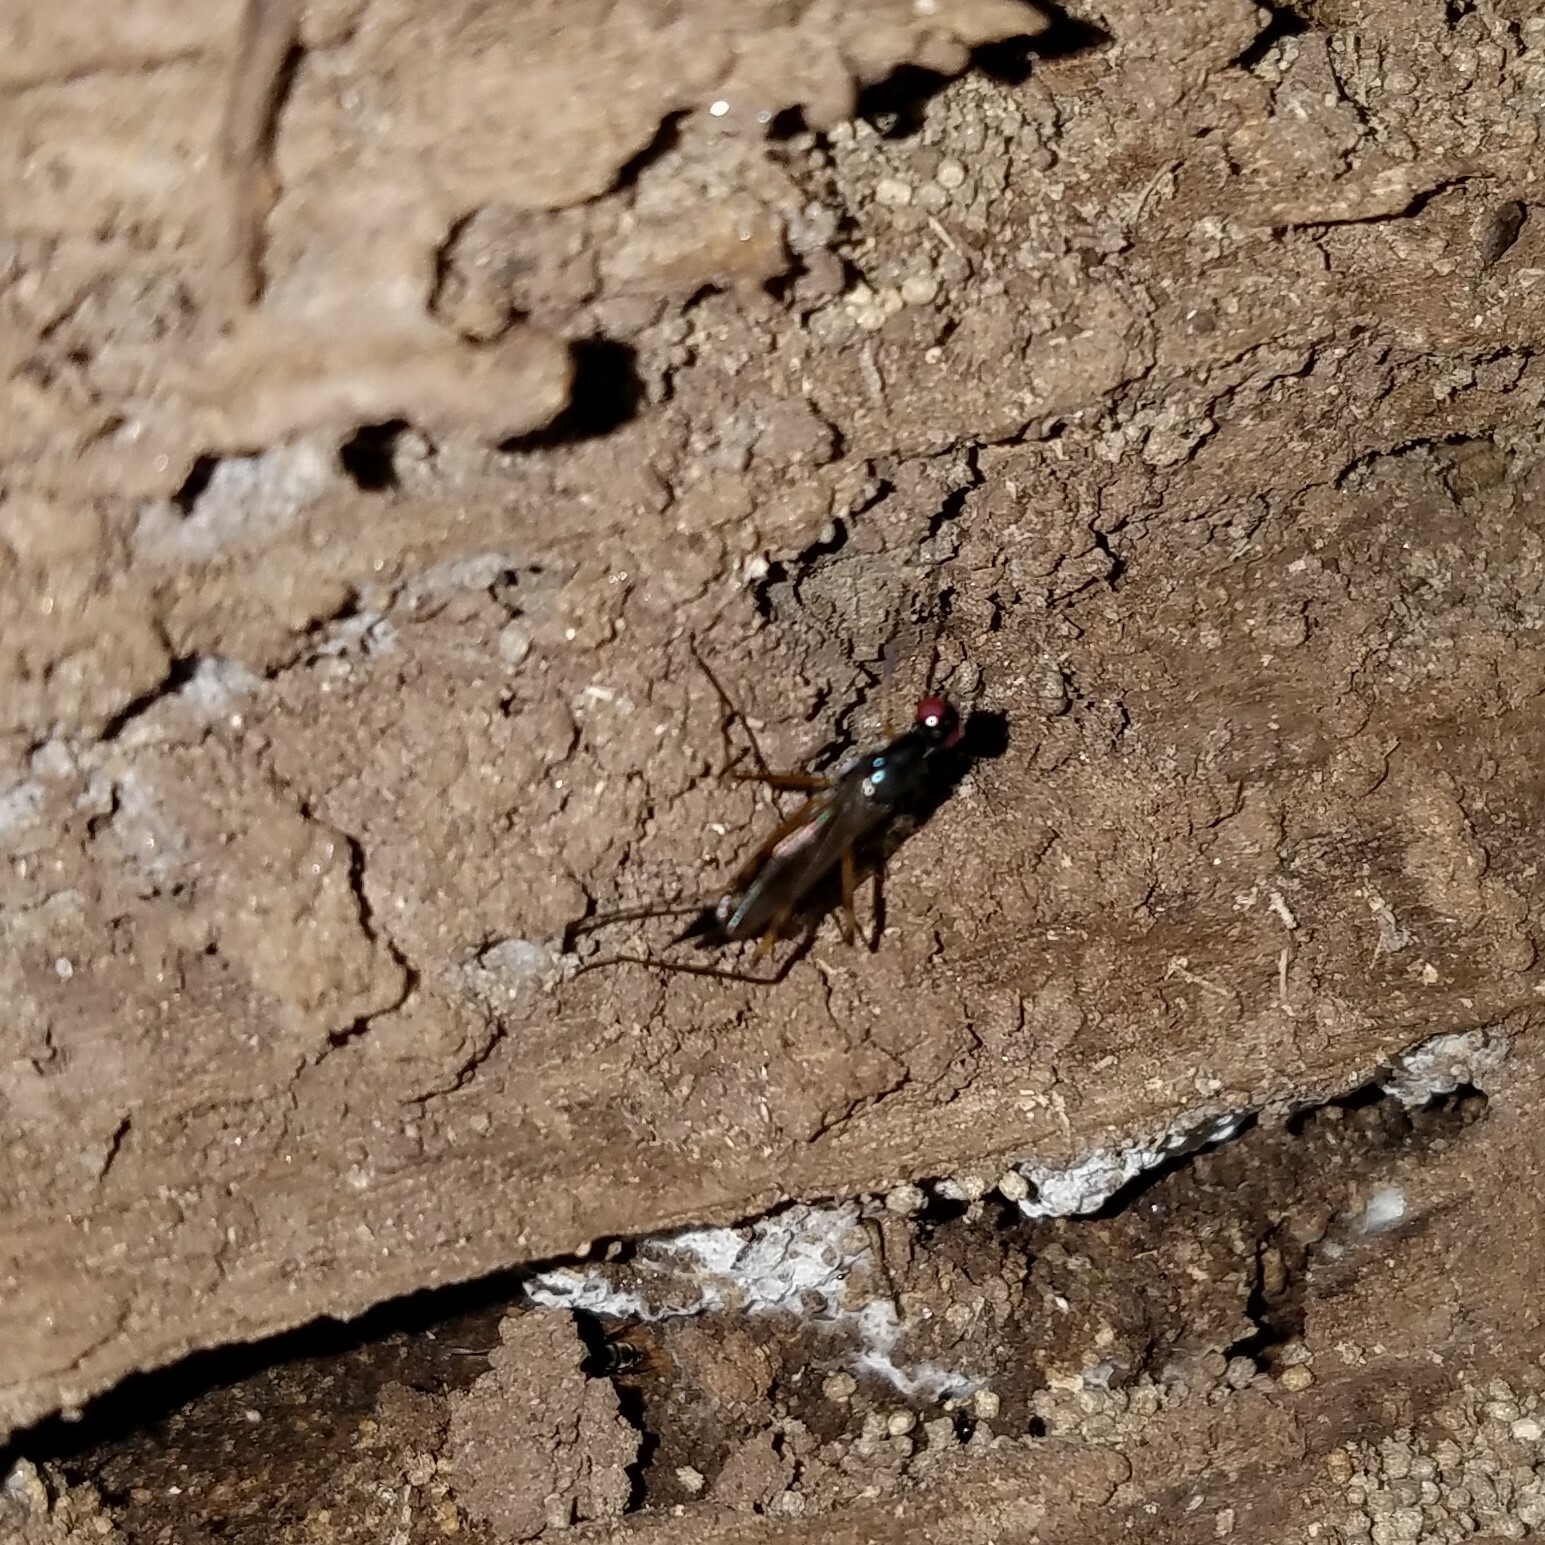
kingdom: Animalia
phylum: Arthropoda
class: Insecta
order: Diptera
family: Micropezidae
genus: Rainieria
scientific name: Rainieria antennaepes
